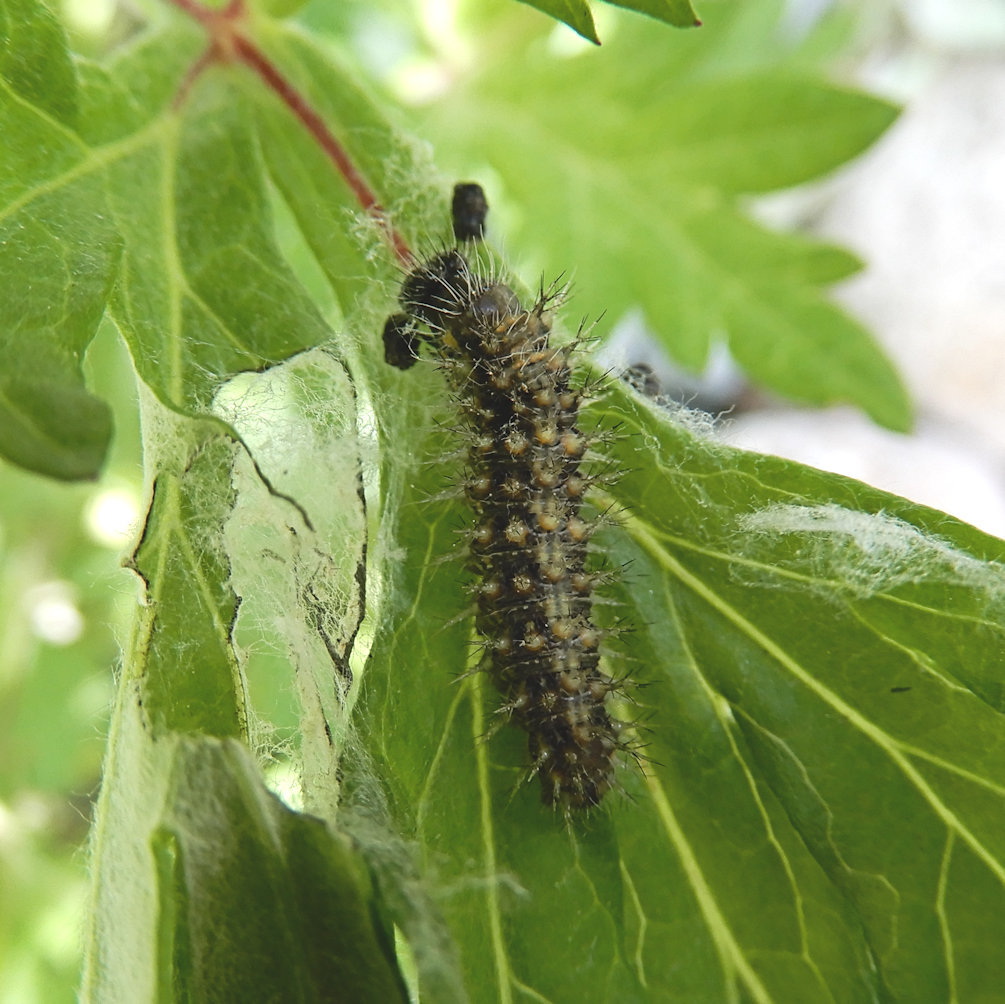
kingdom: Animalia
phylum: Arthropoda
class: Insecta
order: Lepidoptera
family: Nymphalidae
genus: Vanessa
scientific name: Vanessa cardui
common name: Painted lady
